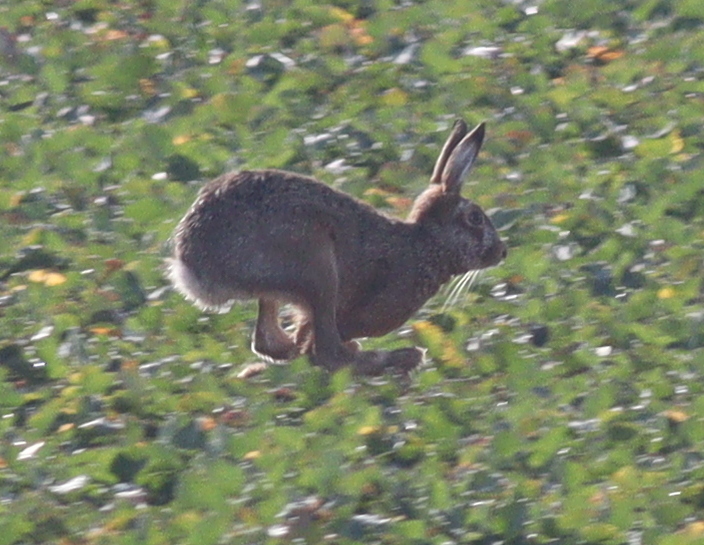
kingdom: Animalia
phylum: Chordata
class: Mammalia
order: Lagomorpha
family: Leporidae
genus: Lepus
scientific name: Lepus europaeus
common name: European hare
